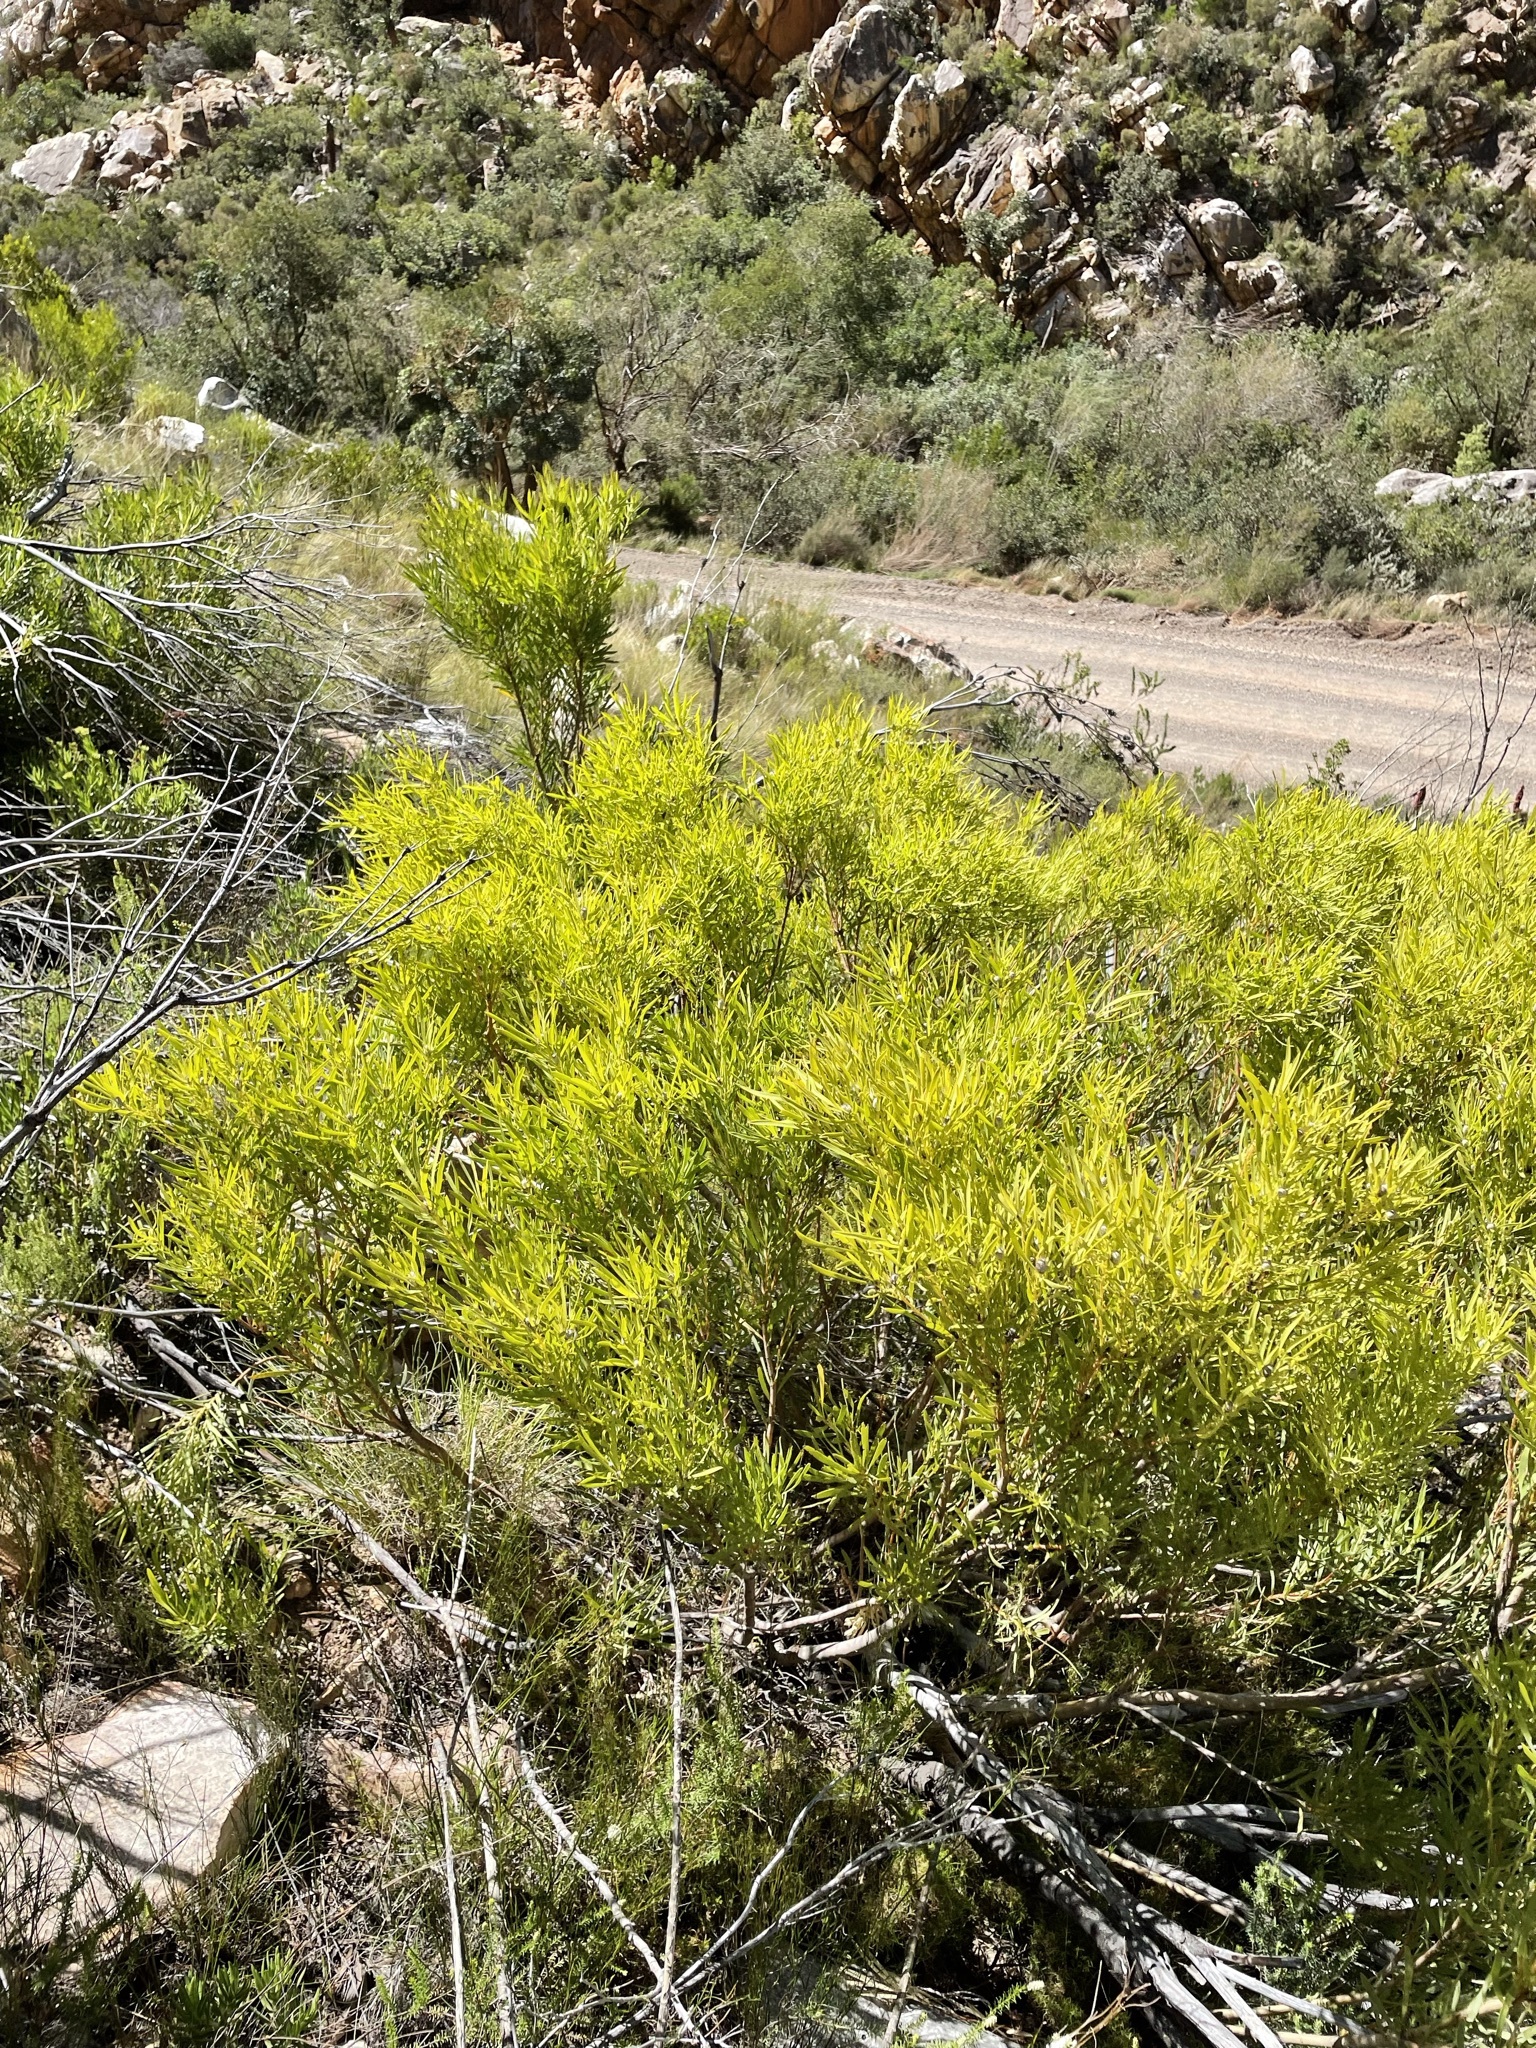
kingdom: Plantae
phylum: Tracheophyta
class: Magnoliopsida
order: Proteales
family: Proteaceae
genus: Leucadendron
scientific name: Leucadendron salignum
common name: Common sunshine conebush
